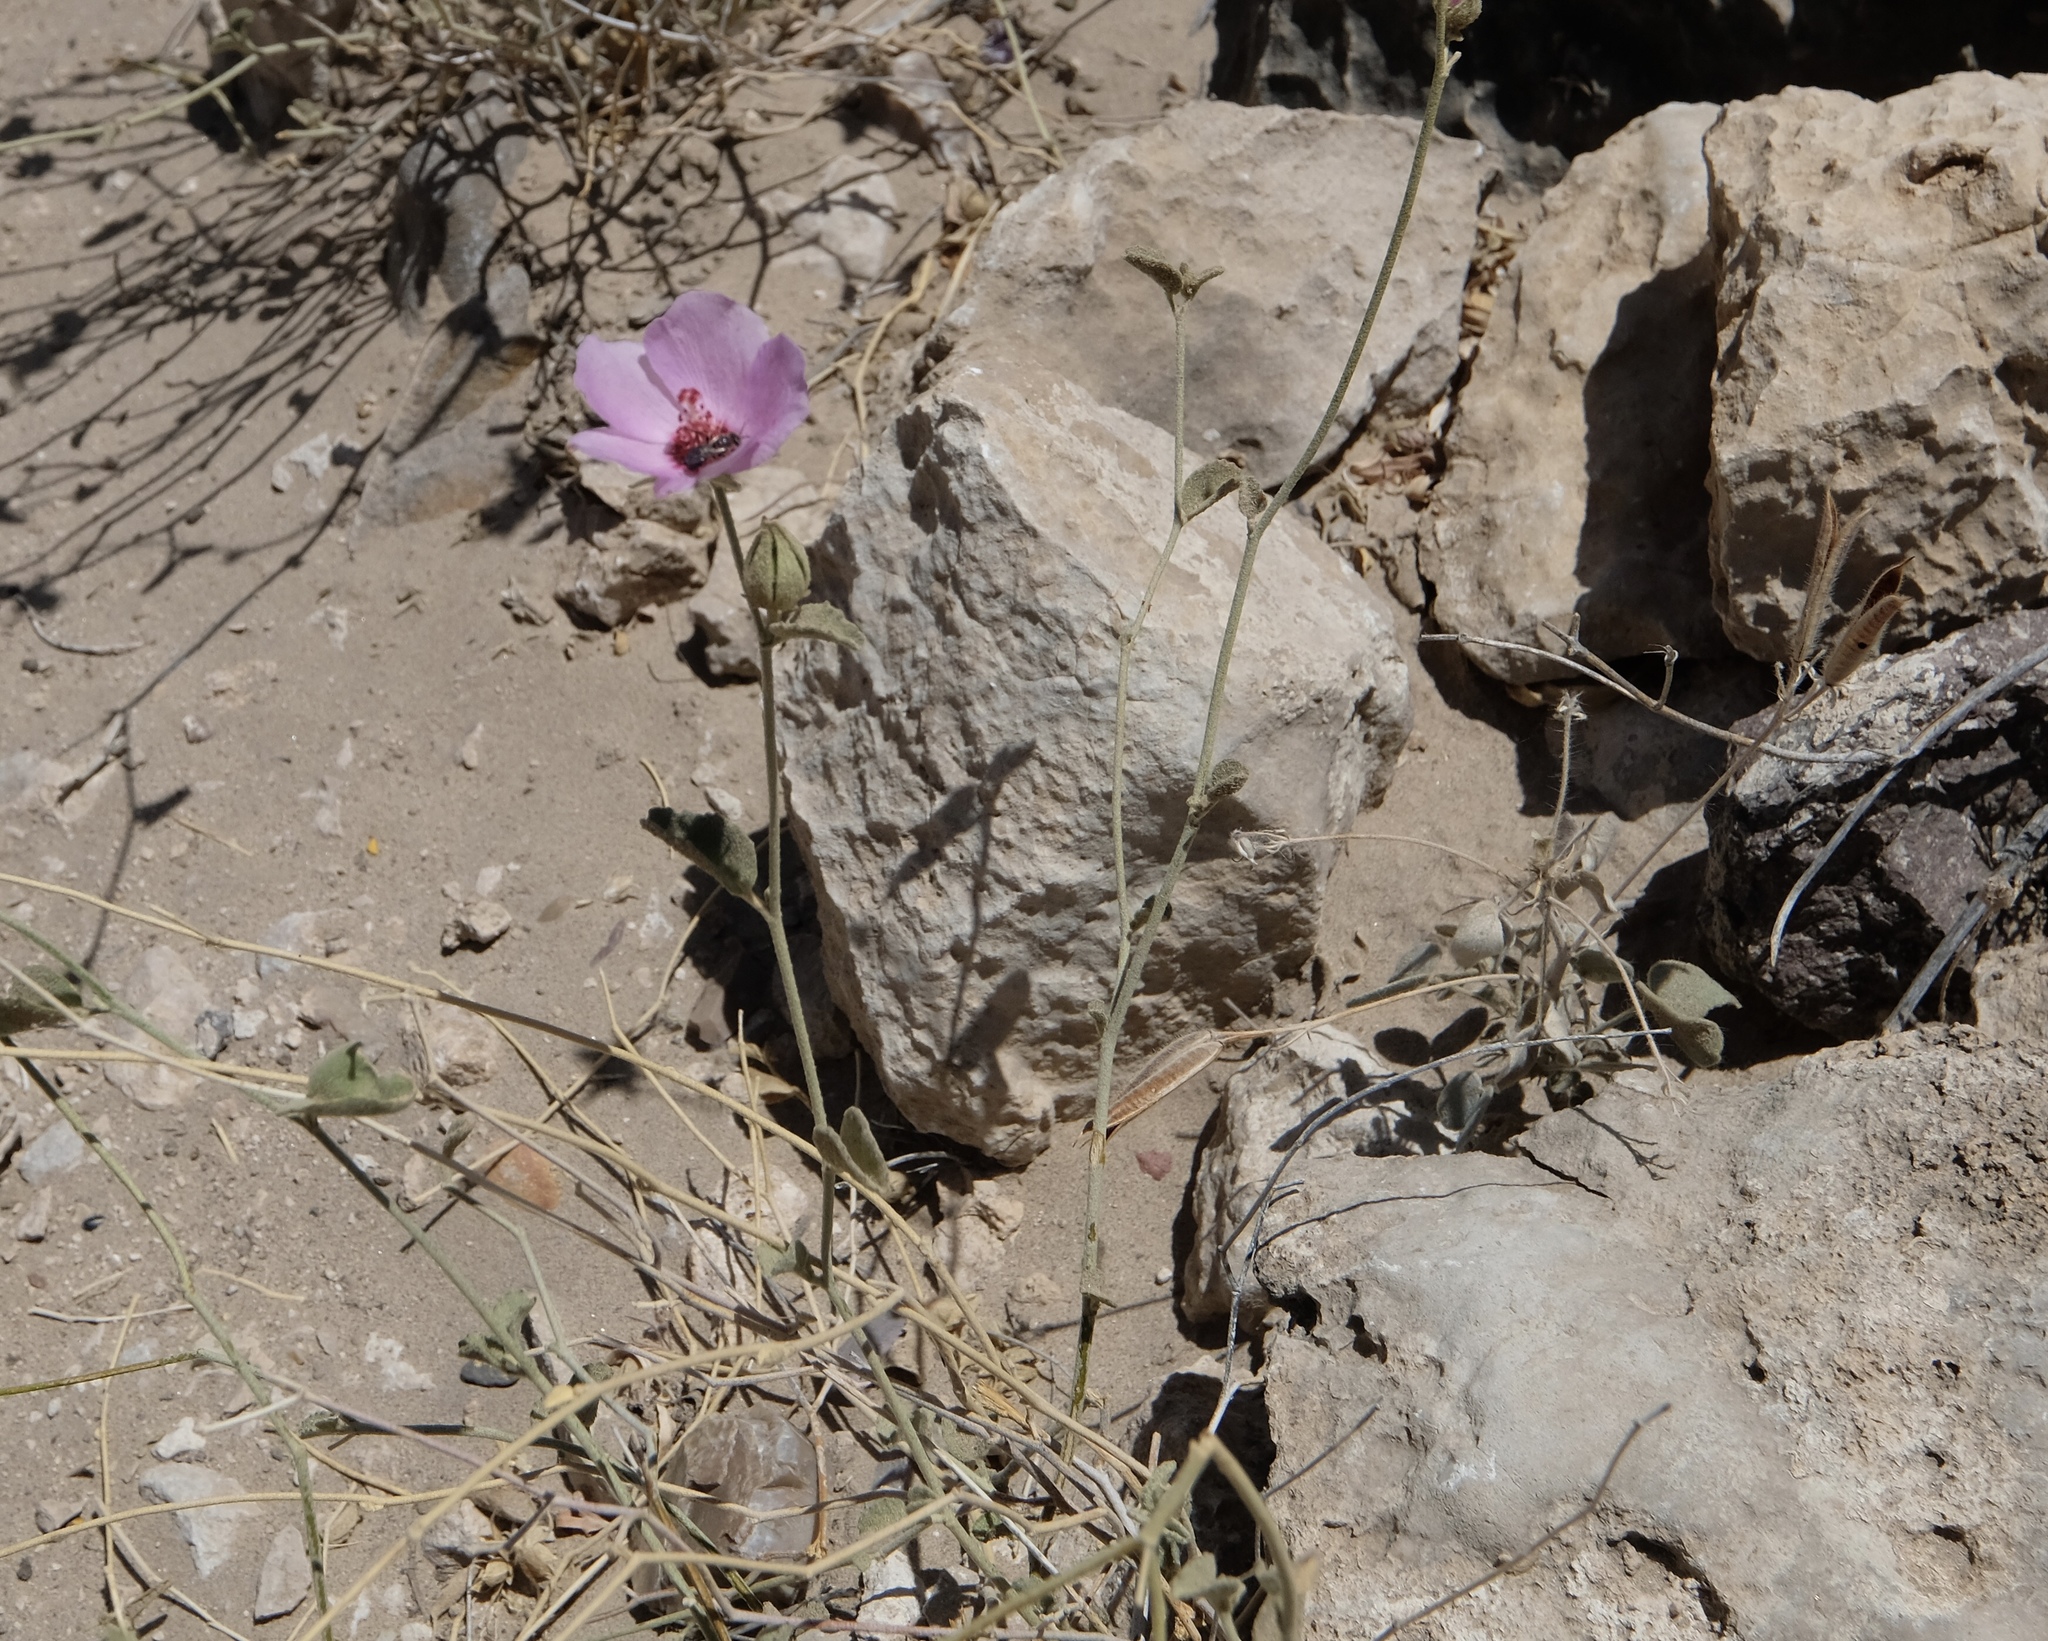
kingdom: Plantae
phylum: Tracheophyta
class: Magnoliopsida
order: Malvales
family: Malvaceae
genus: Hibiscus
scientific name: Hibiscus denudatus
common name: Paleface
